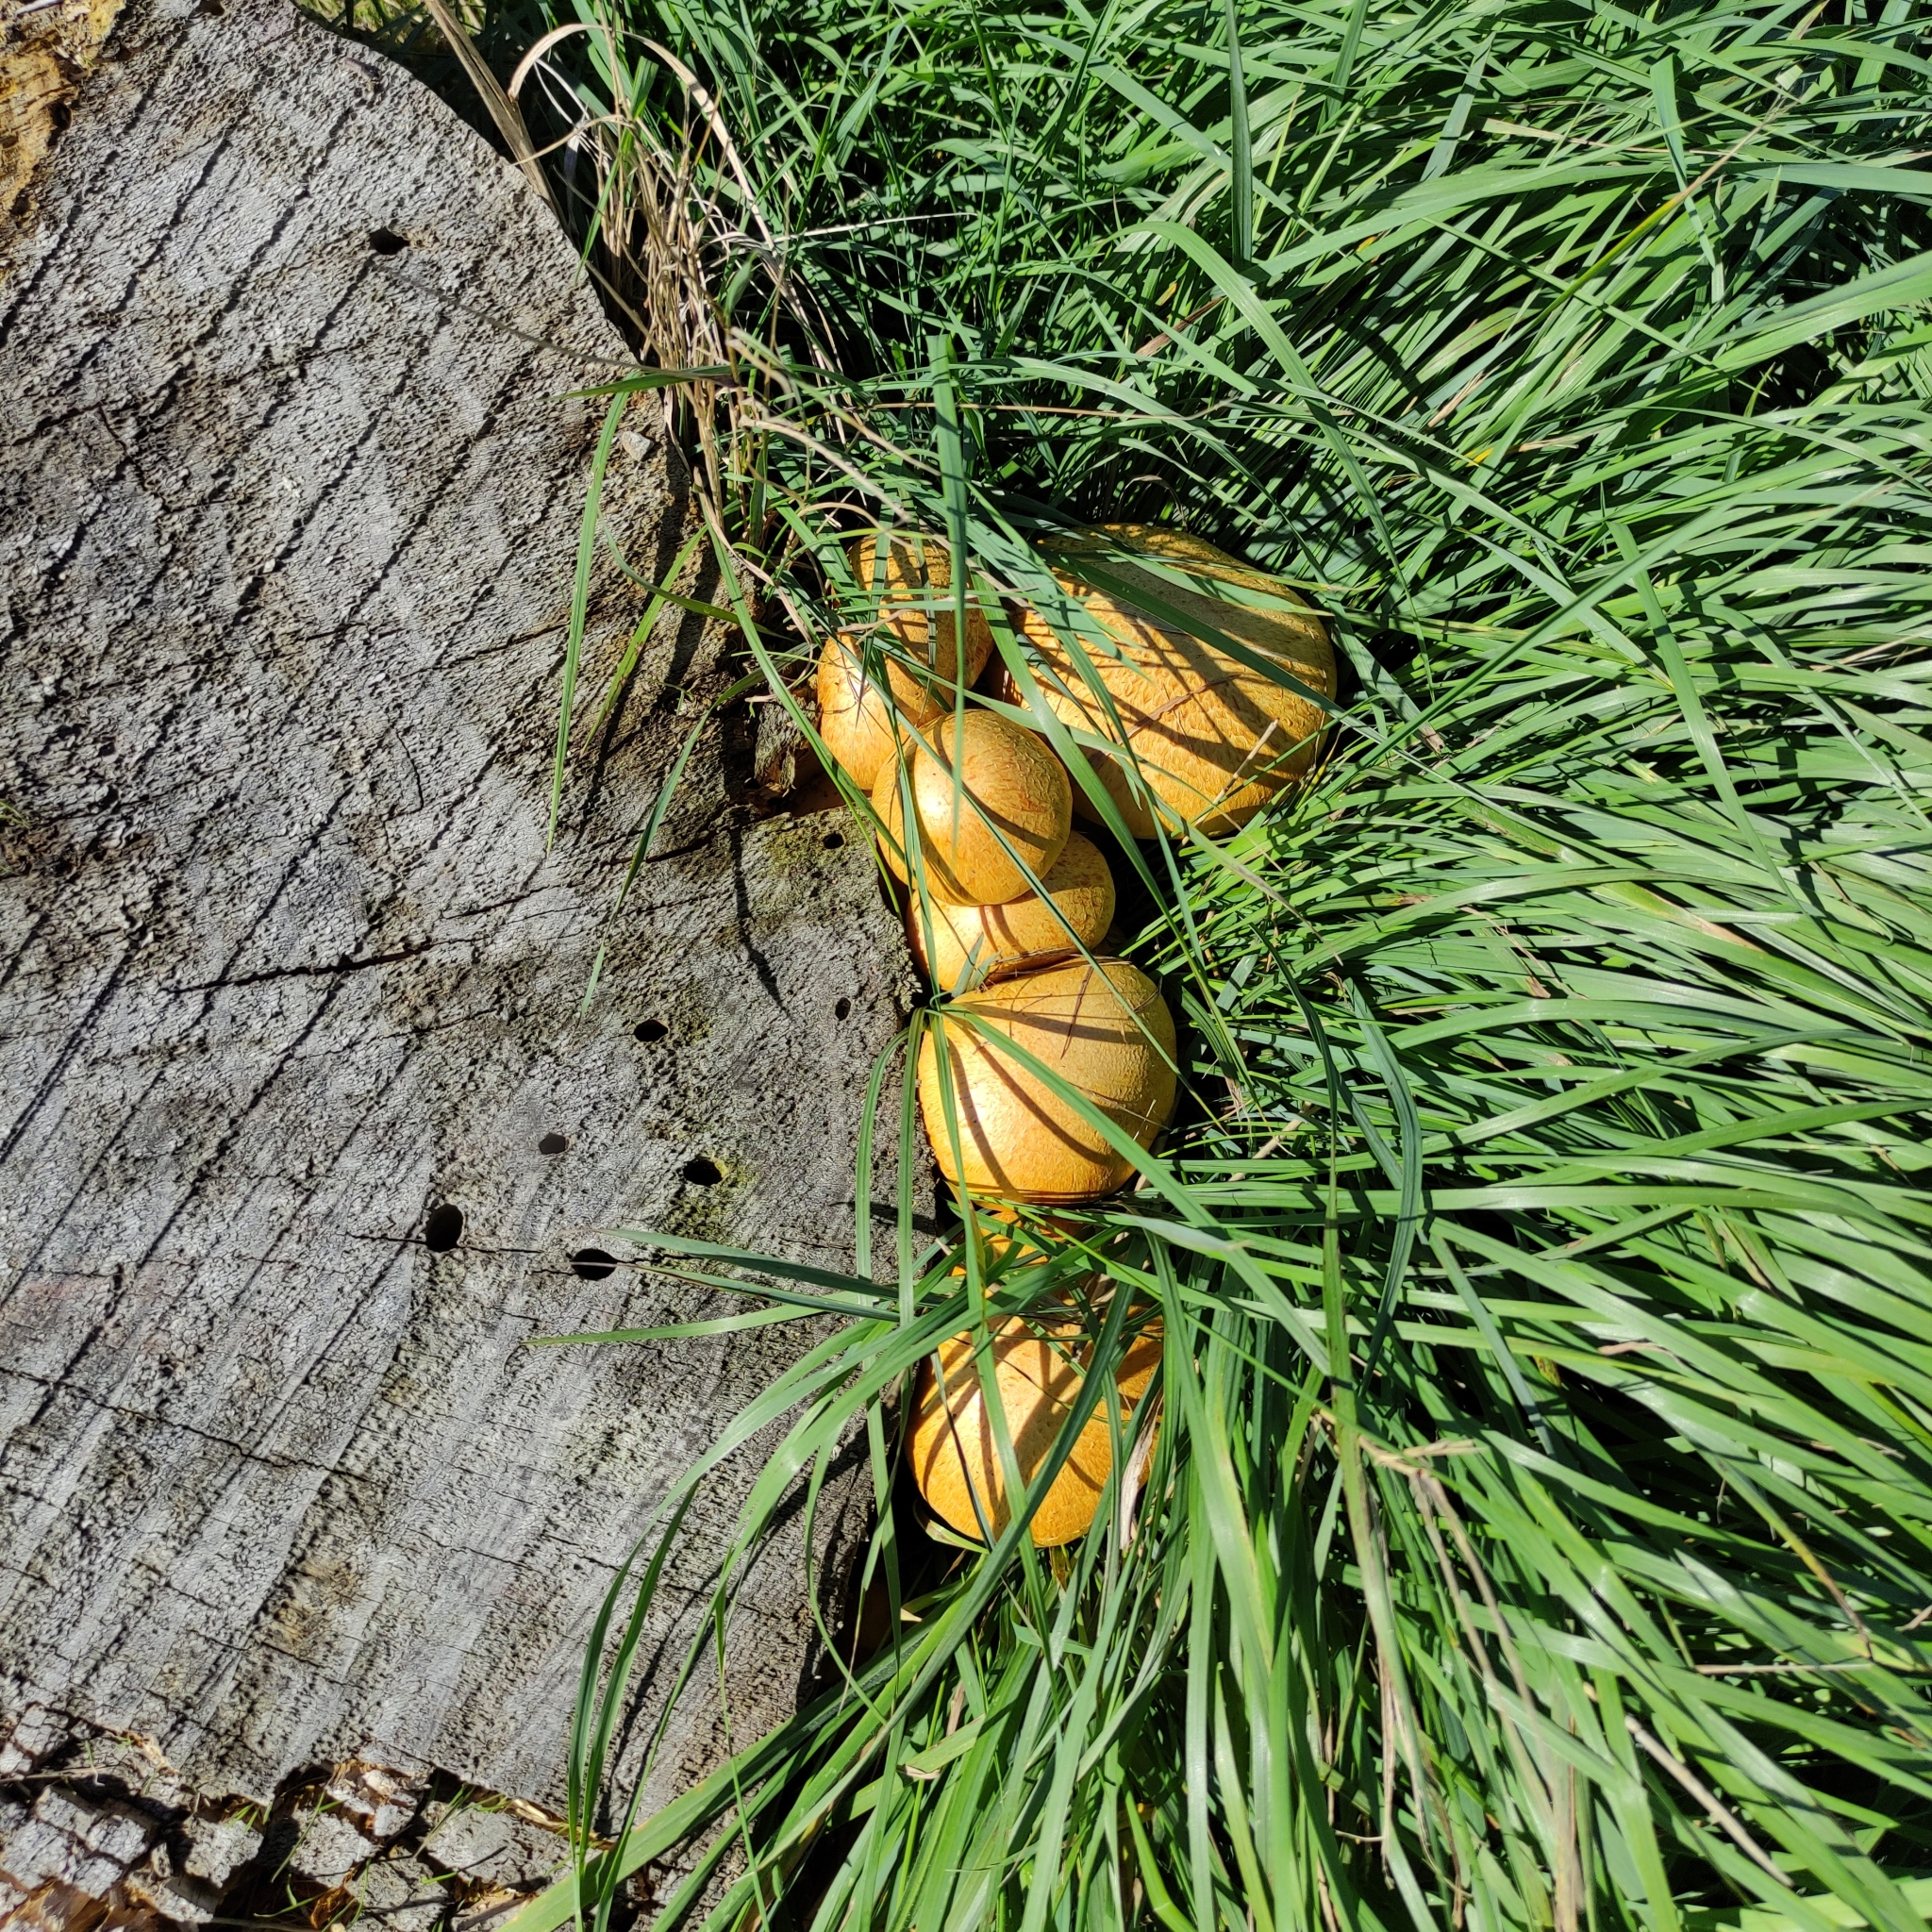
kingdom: Fungi
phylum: Basidiomycota
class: Agaricomycetes
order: Agaricales
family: Hymenogastraceae
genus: Gymnopilus
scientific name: Gymnopilus junonius
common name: Spectacular rustgill
